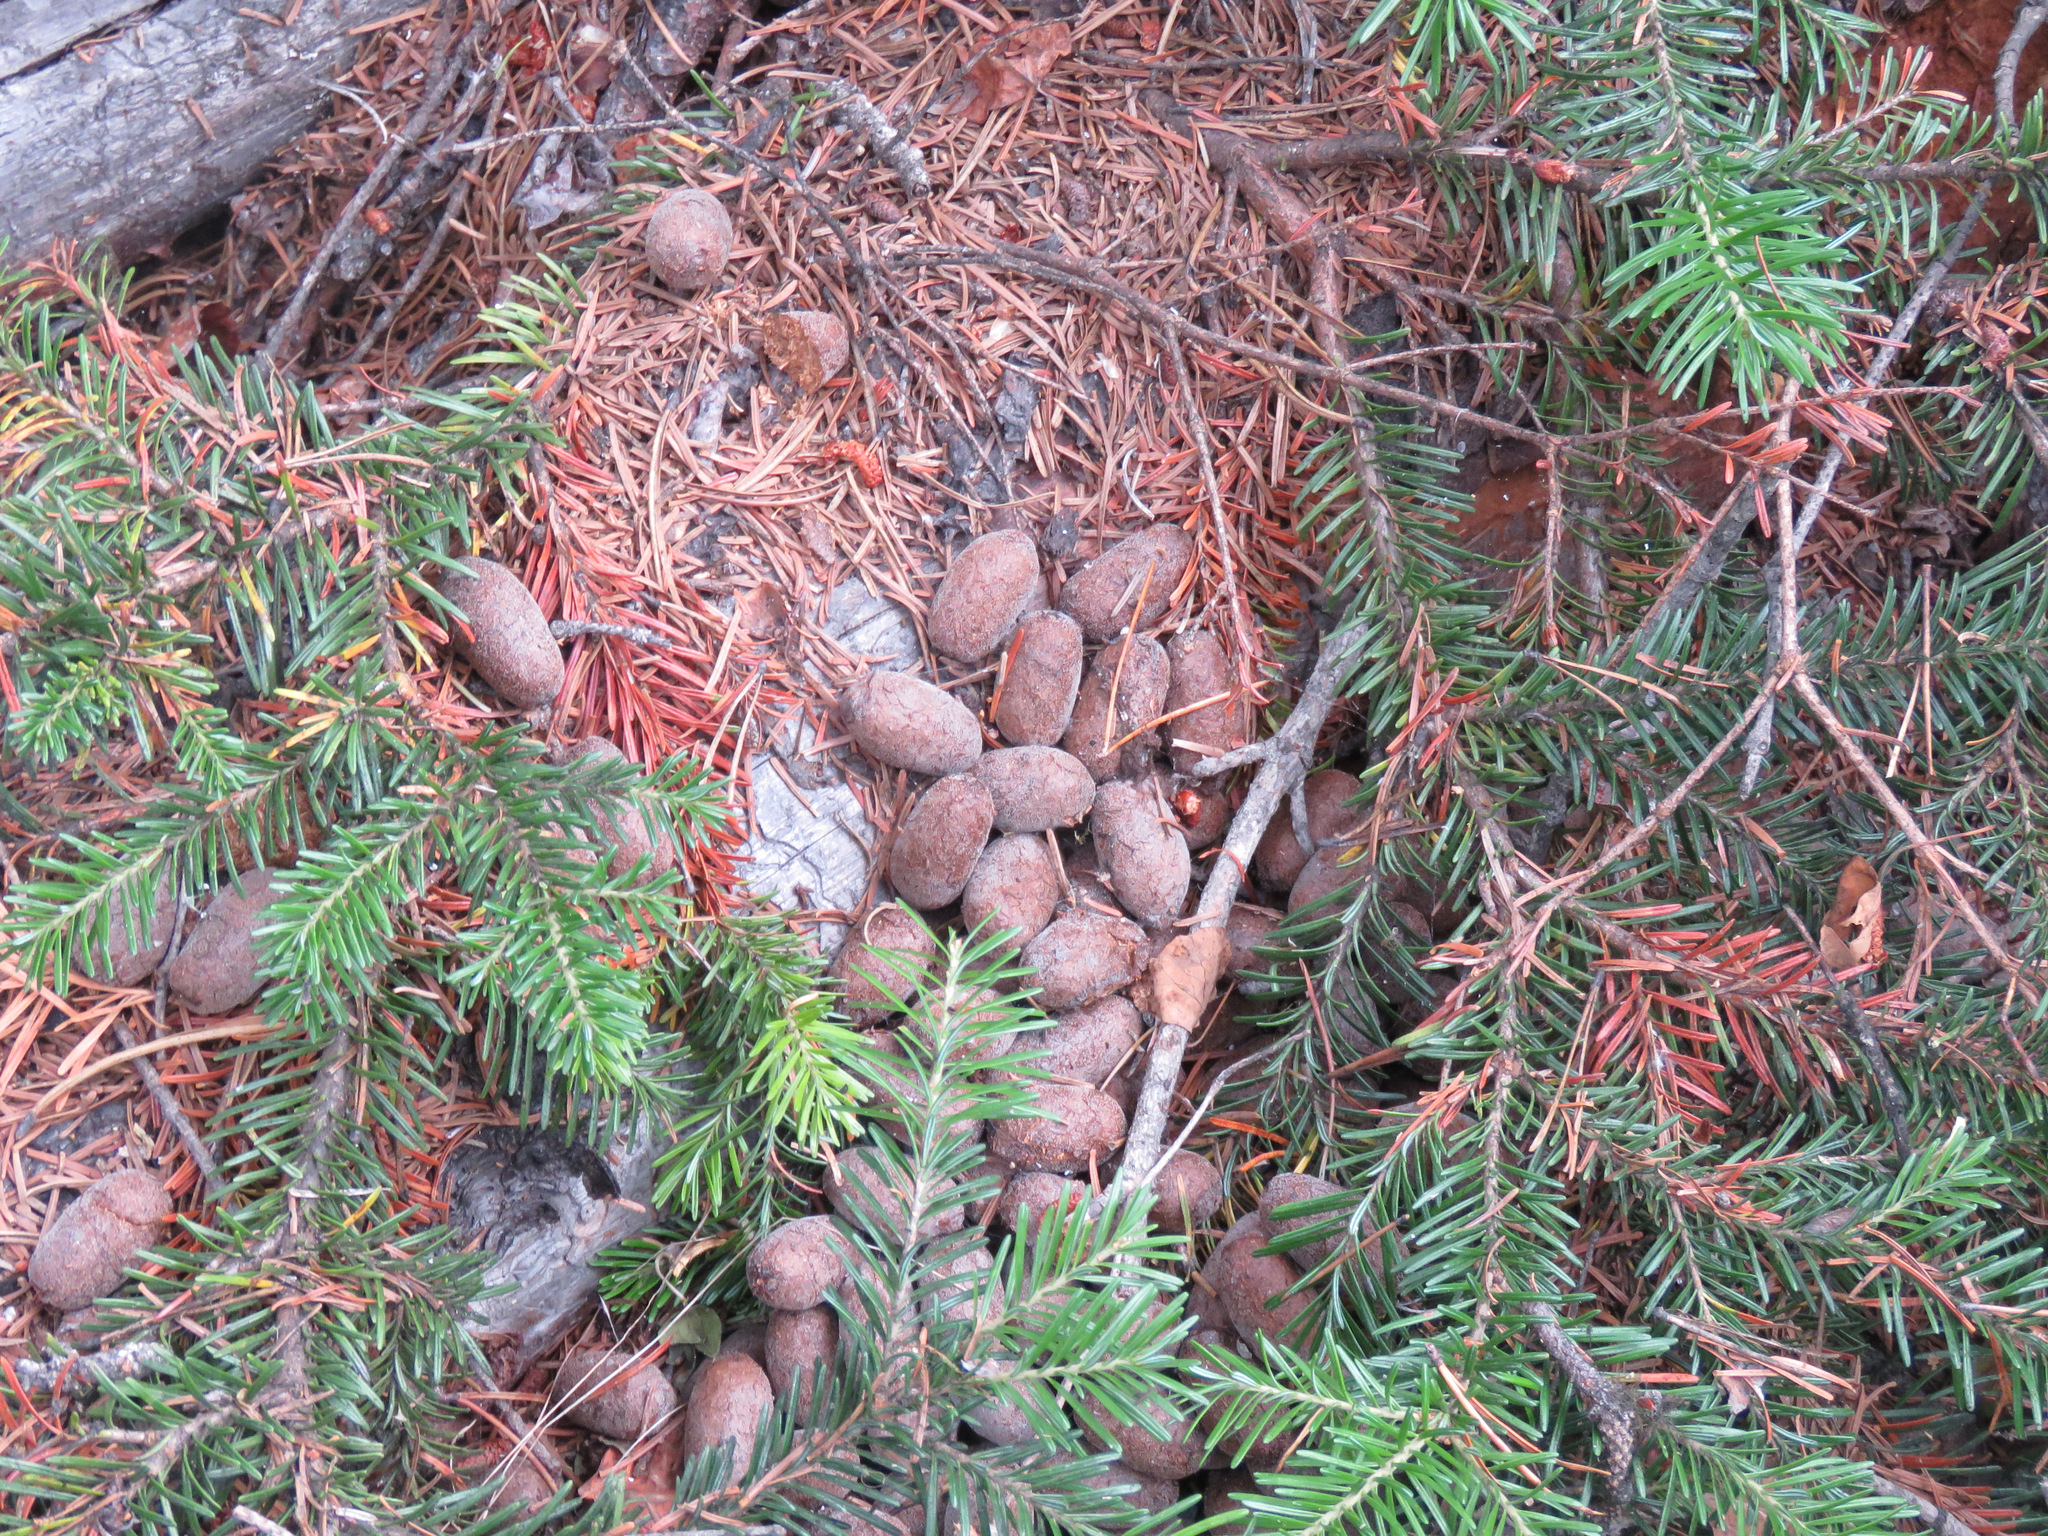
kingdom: Animalia
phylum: Chordata
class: Mammalia
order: Artiodactyla
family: Cervidae
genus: Alces
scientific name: Alces alces
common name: Moose
